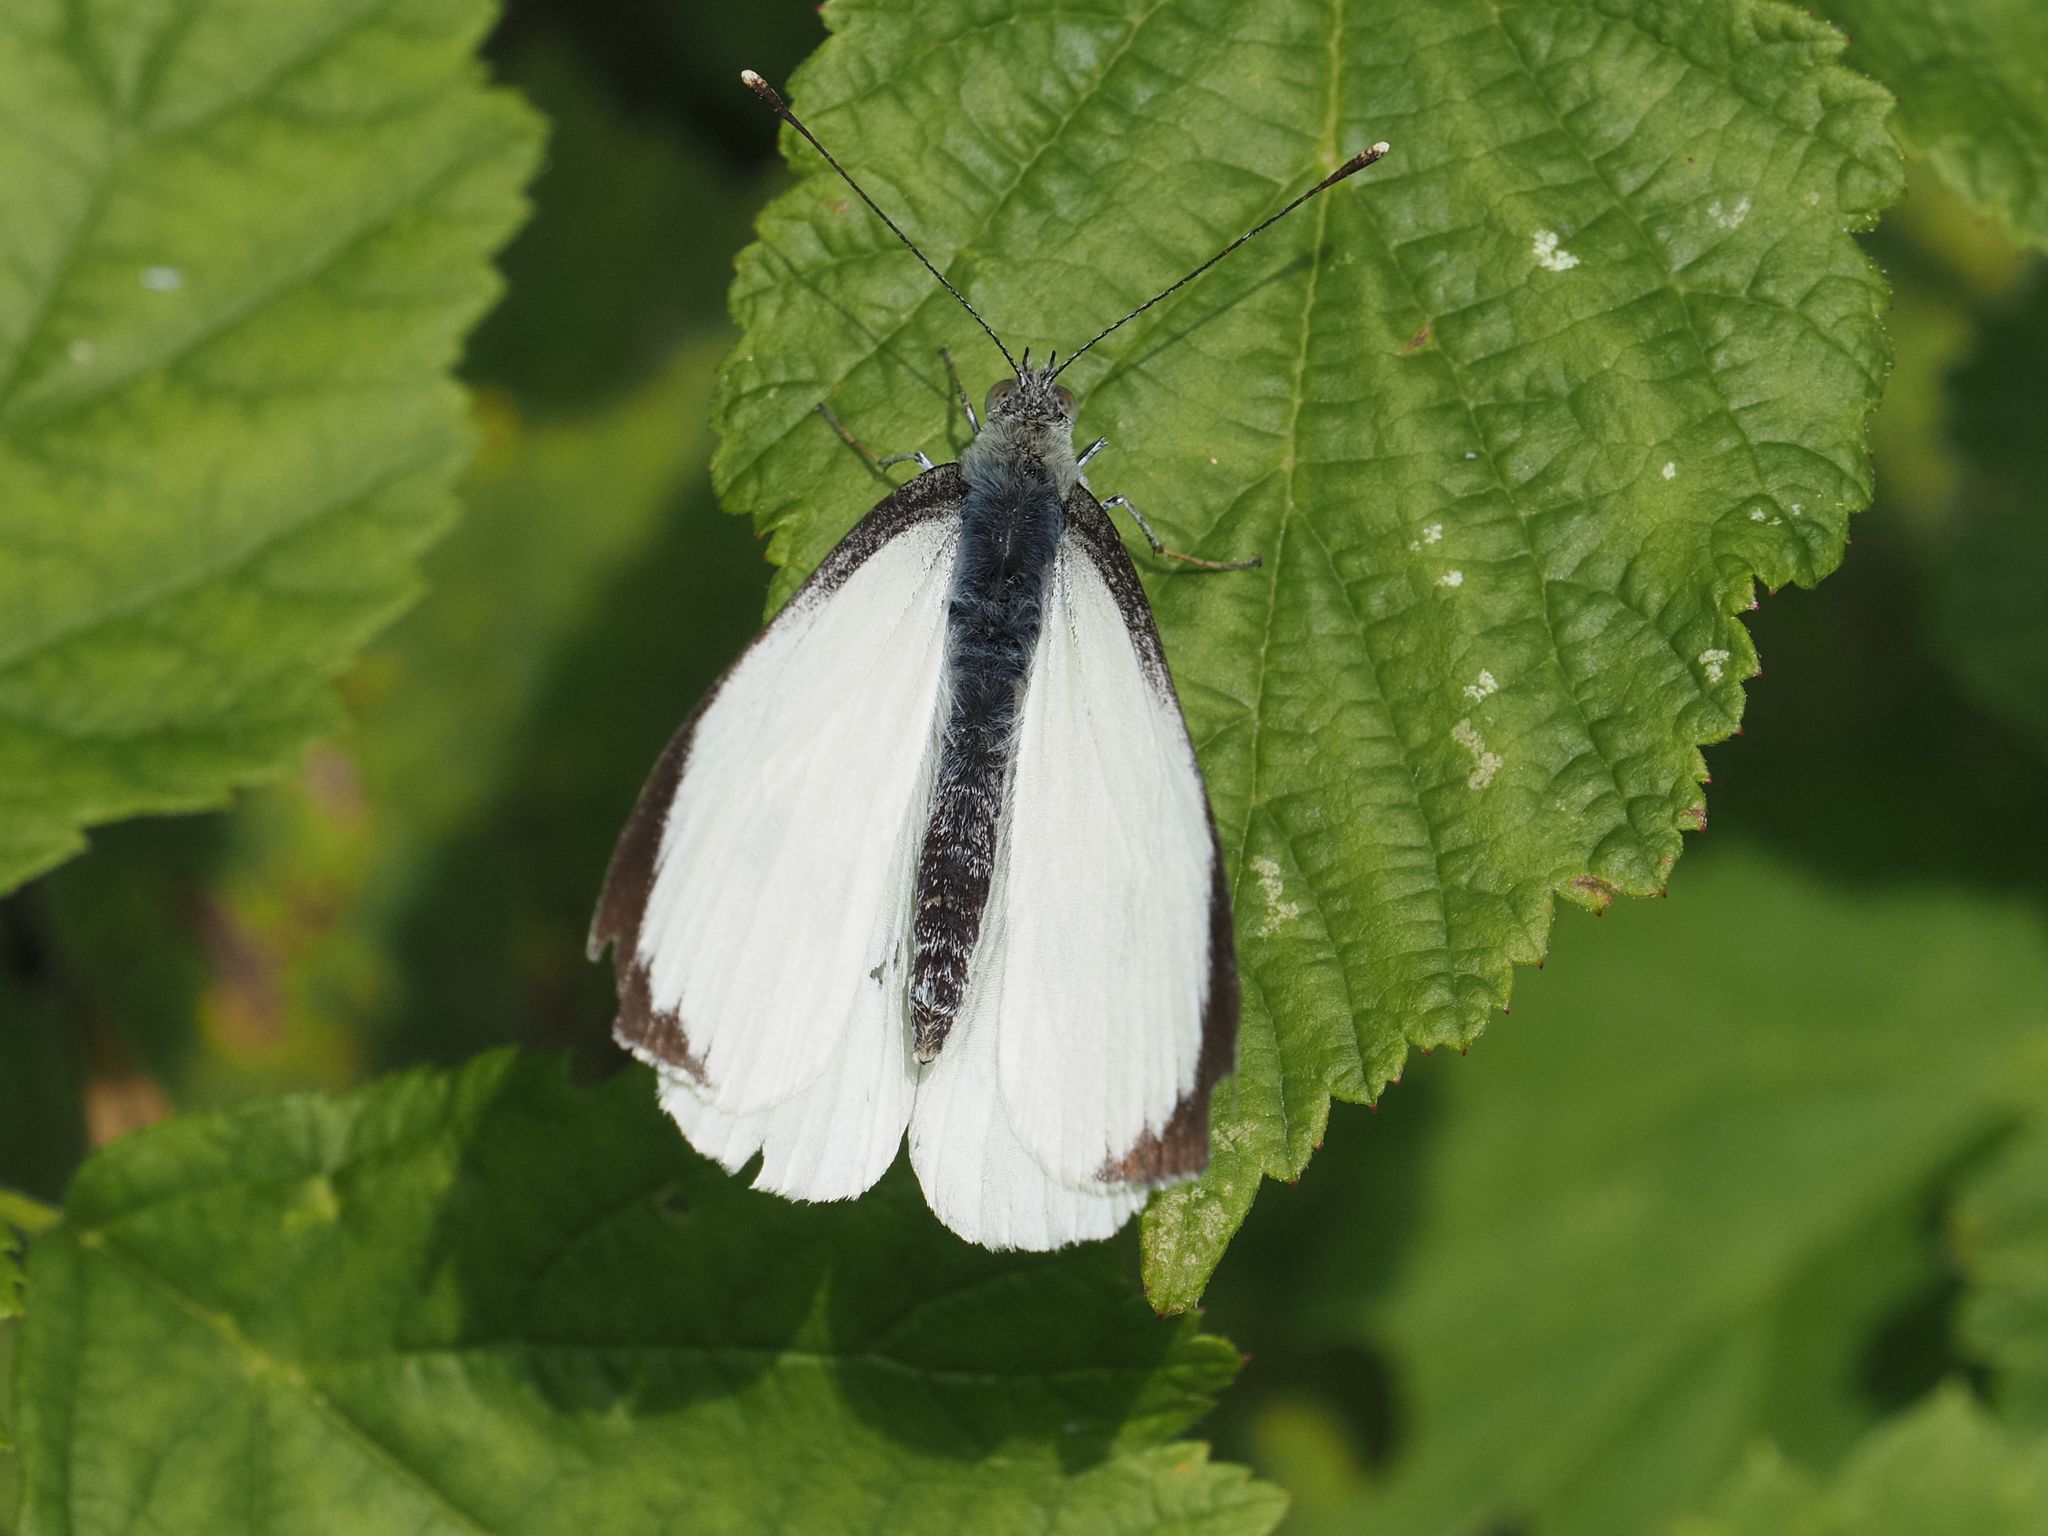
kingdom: Animalia
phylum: Arthropoda
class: Insecta
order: Lepidoptera
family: Pieridae
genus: Pieris
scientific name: Pieris brassicae
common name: Large white
